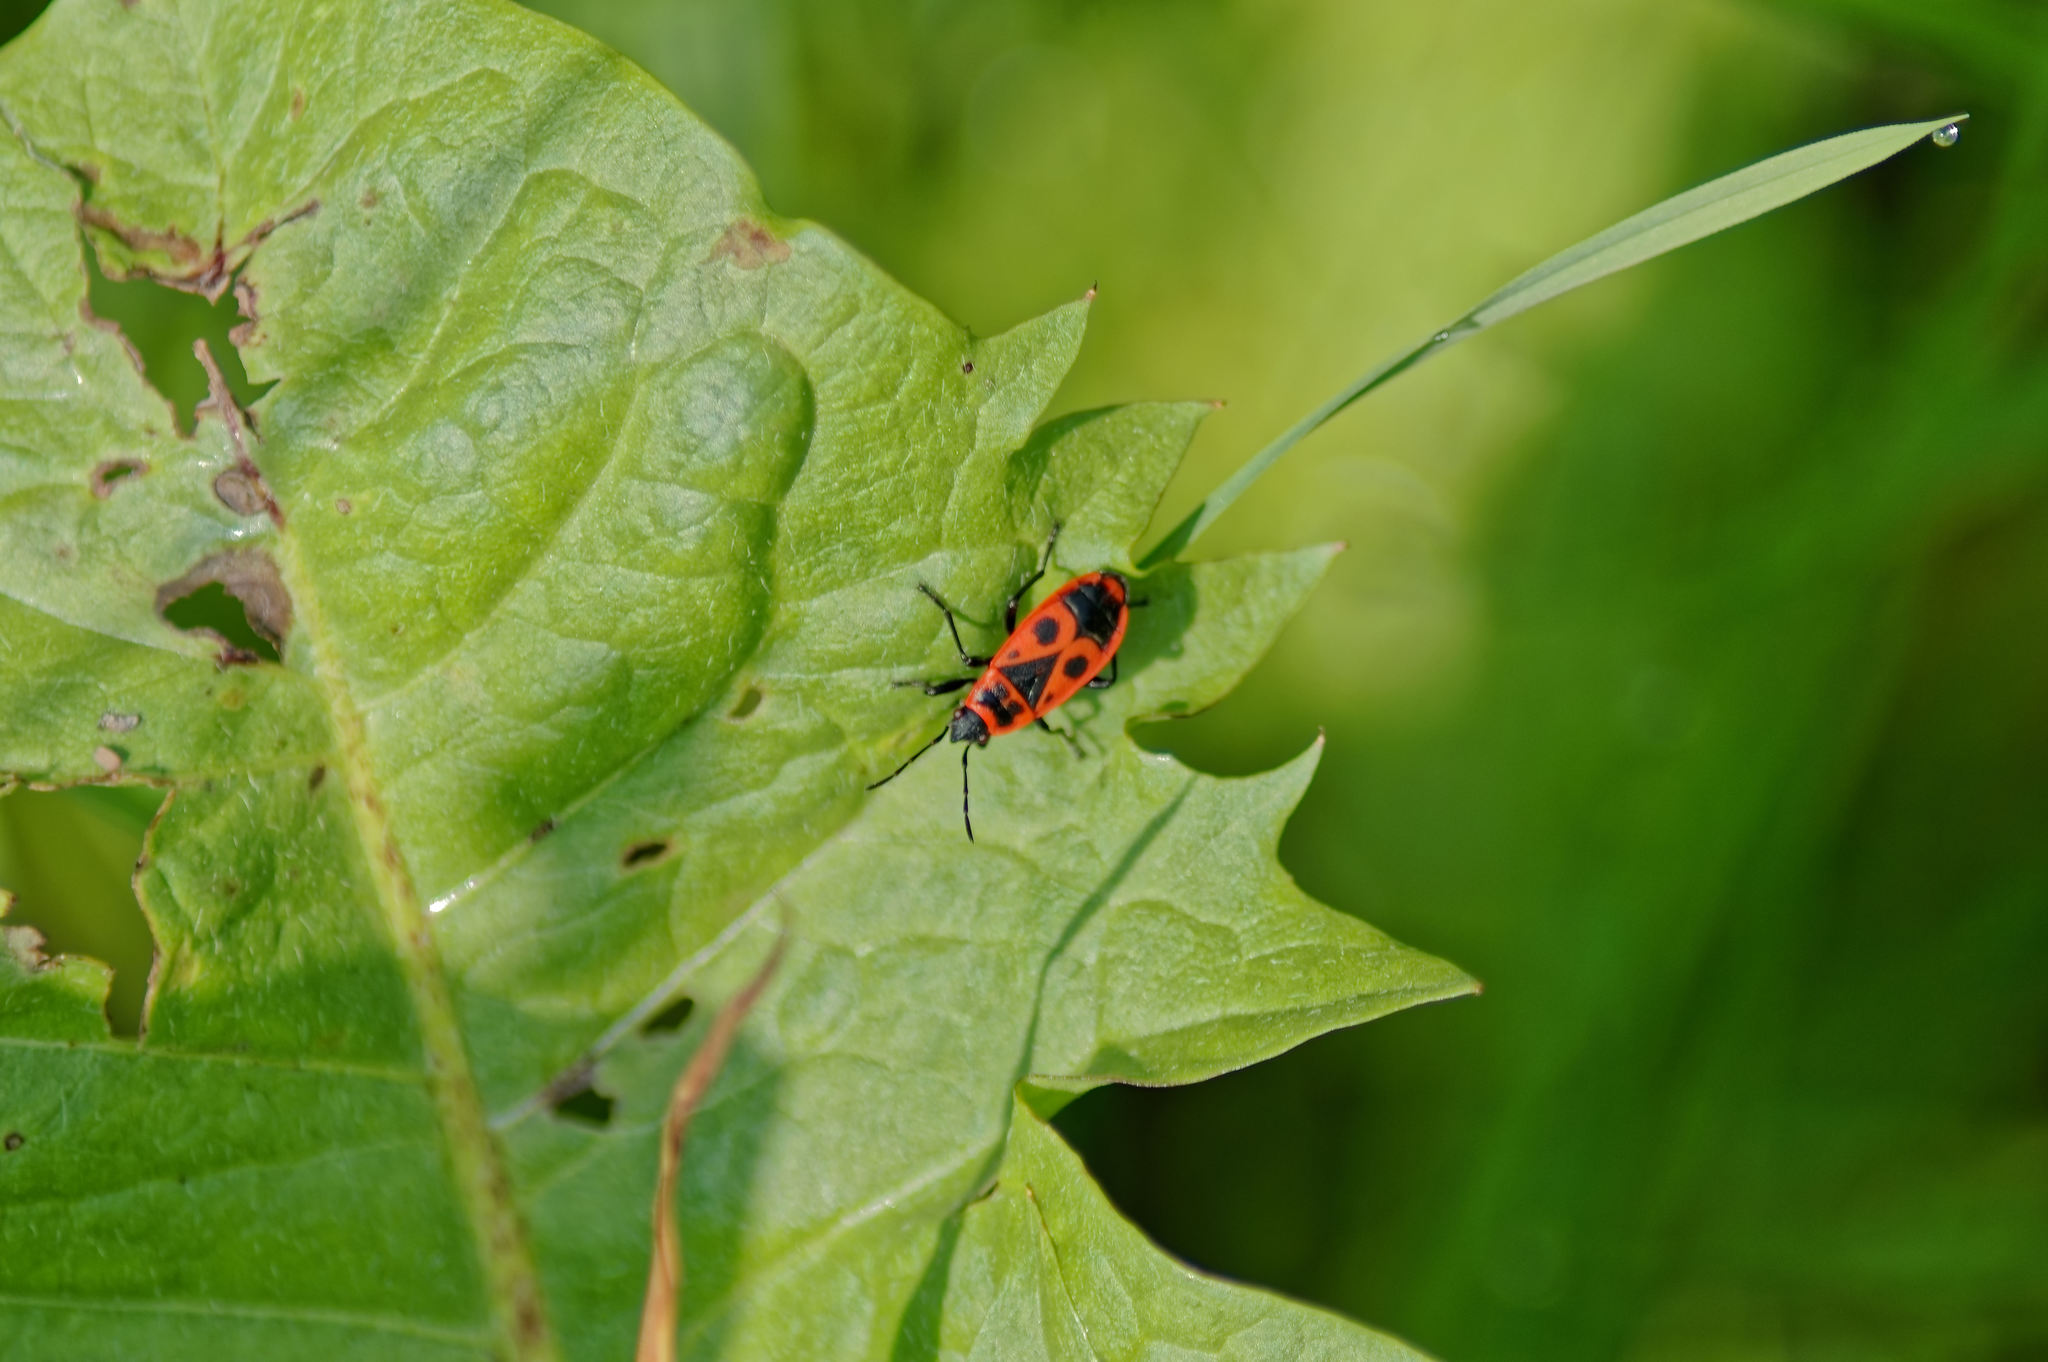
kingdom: Animalia
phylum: Arthropoda
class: Insecta
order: Hemiptera
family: Pyrrhocoridae
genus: Pyrrhocoris
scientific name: Pyrrhocoris apterus
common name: Firebug
